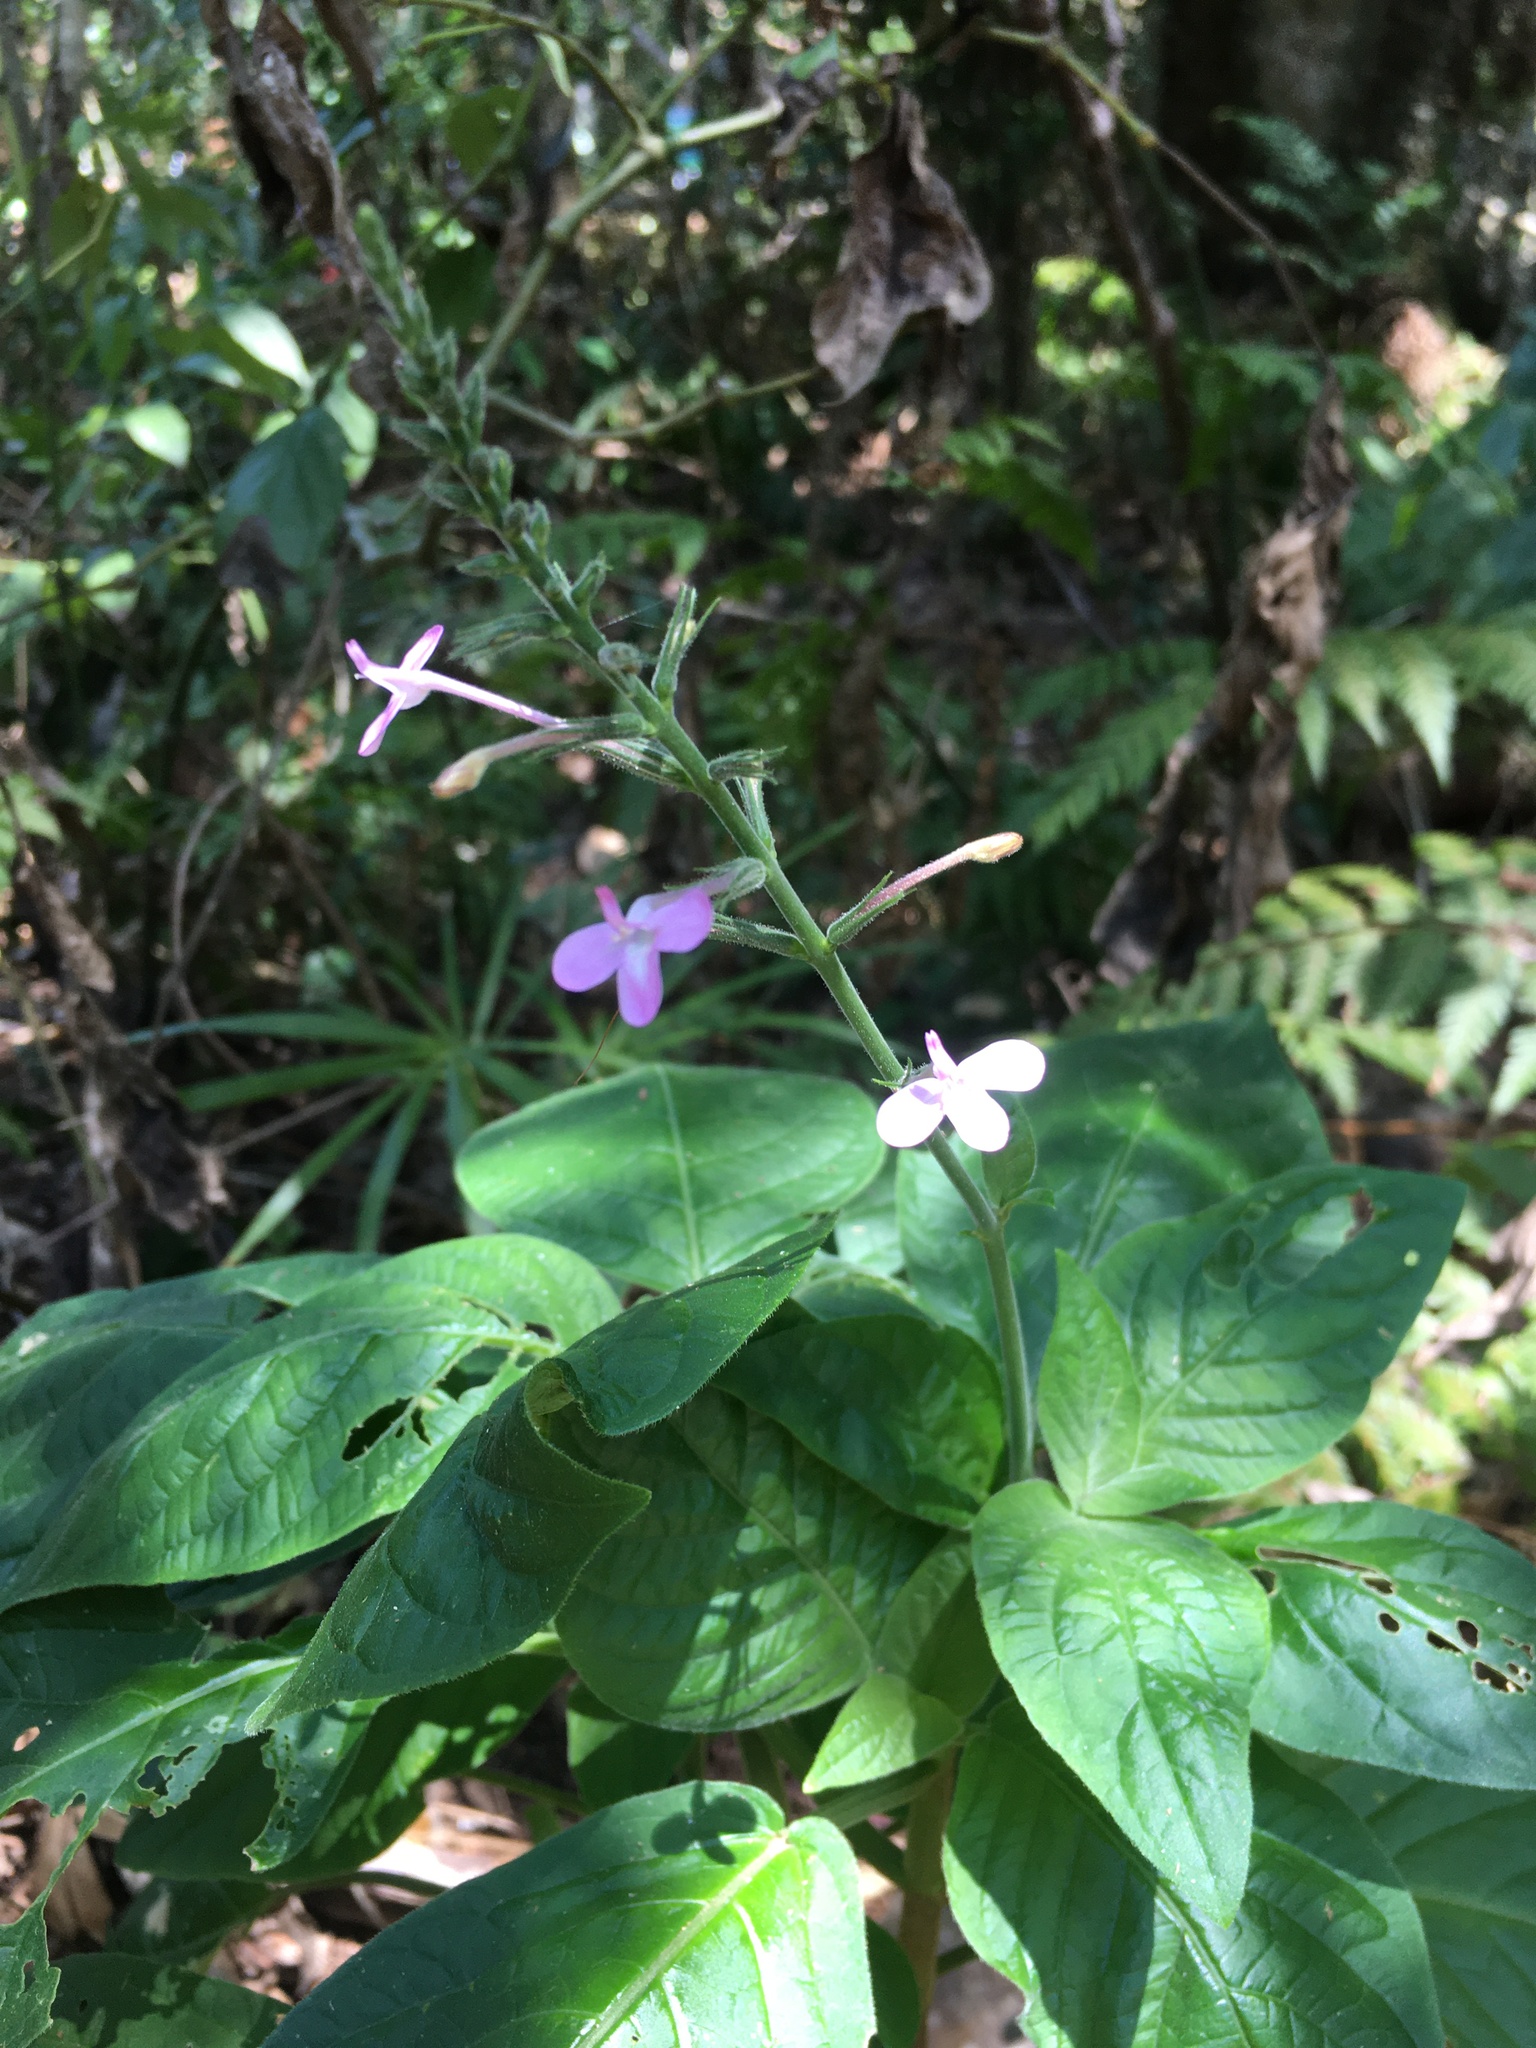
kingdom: Plantae
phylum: Tracheophyta
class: Magnoliopsida
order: Lamiales
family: Acanthaceae
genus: Pachystachys
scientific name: Pachystachys dubiosa
